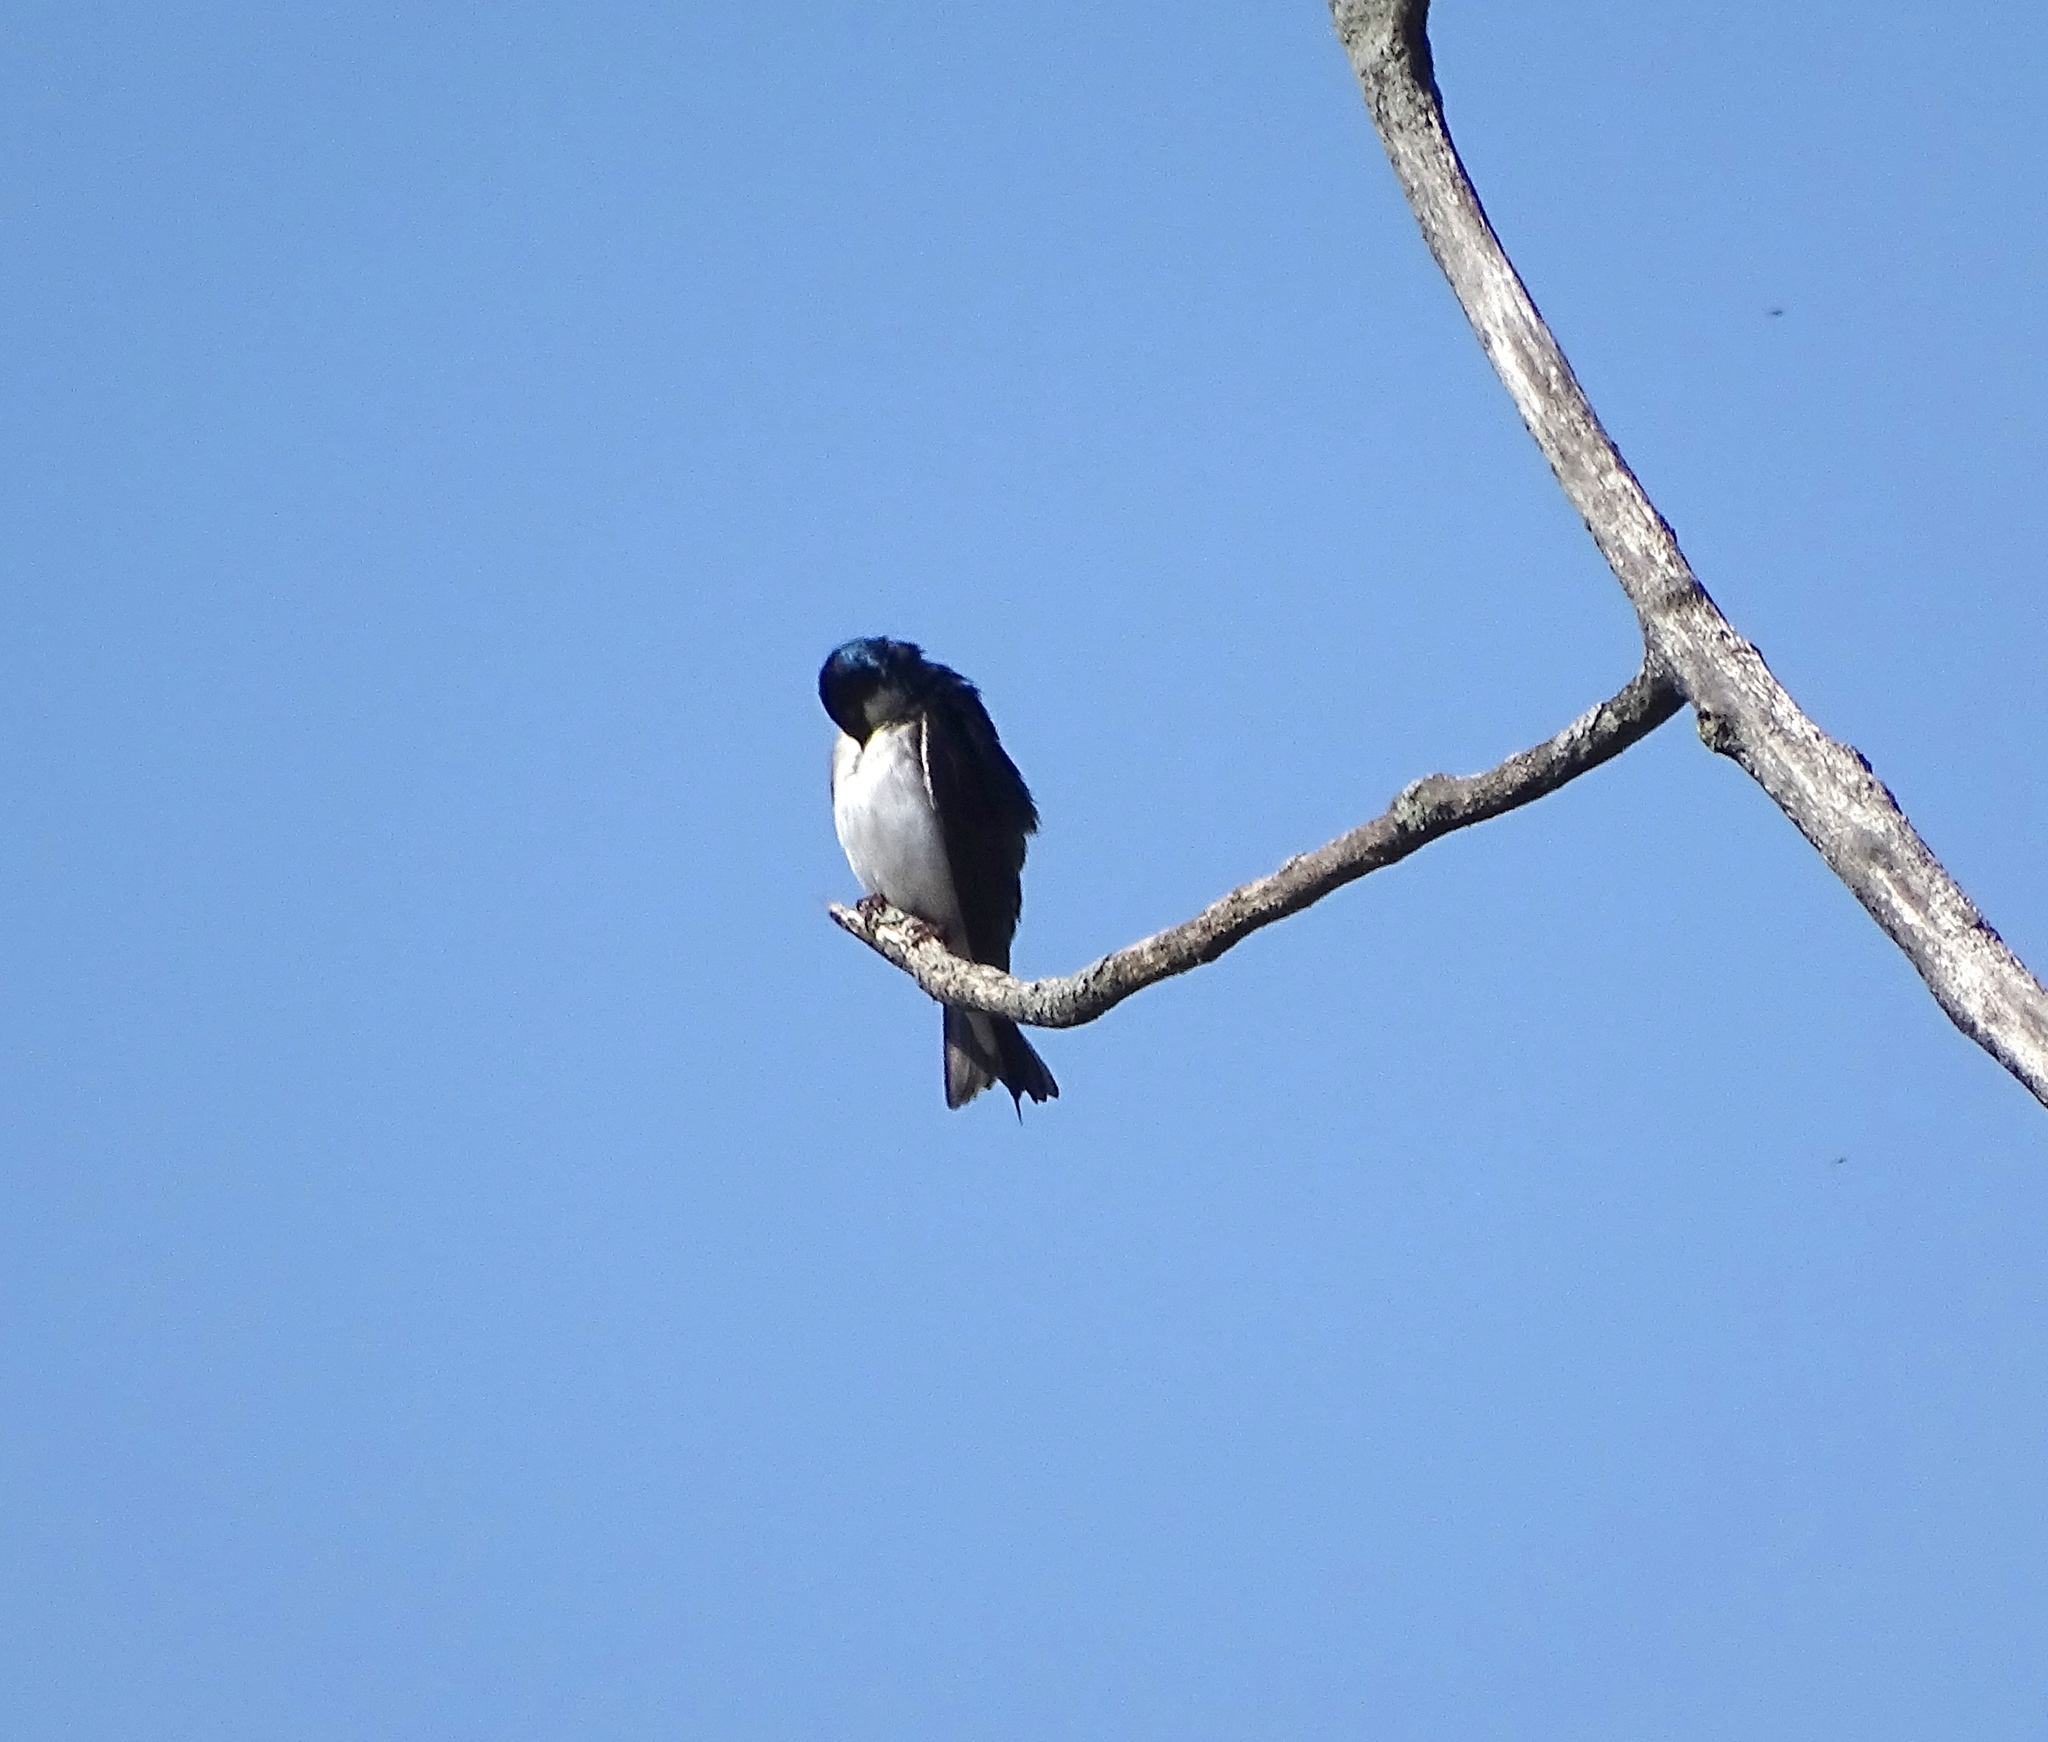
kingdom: Animalia
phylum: Chordata
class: Aves
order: Passeriformes
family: Hirundinidae
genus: Tachycineta
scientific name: Tachycineta bicolor
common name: Tree swallow
